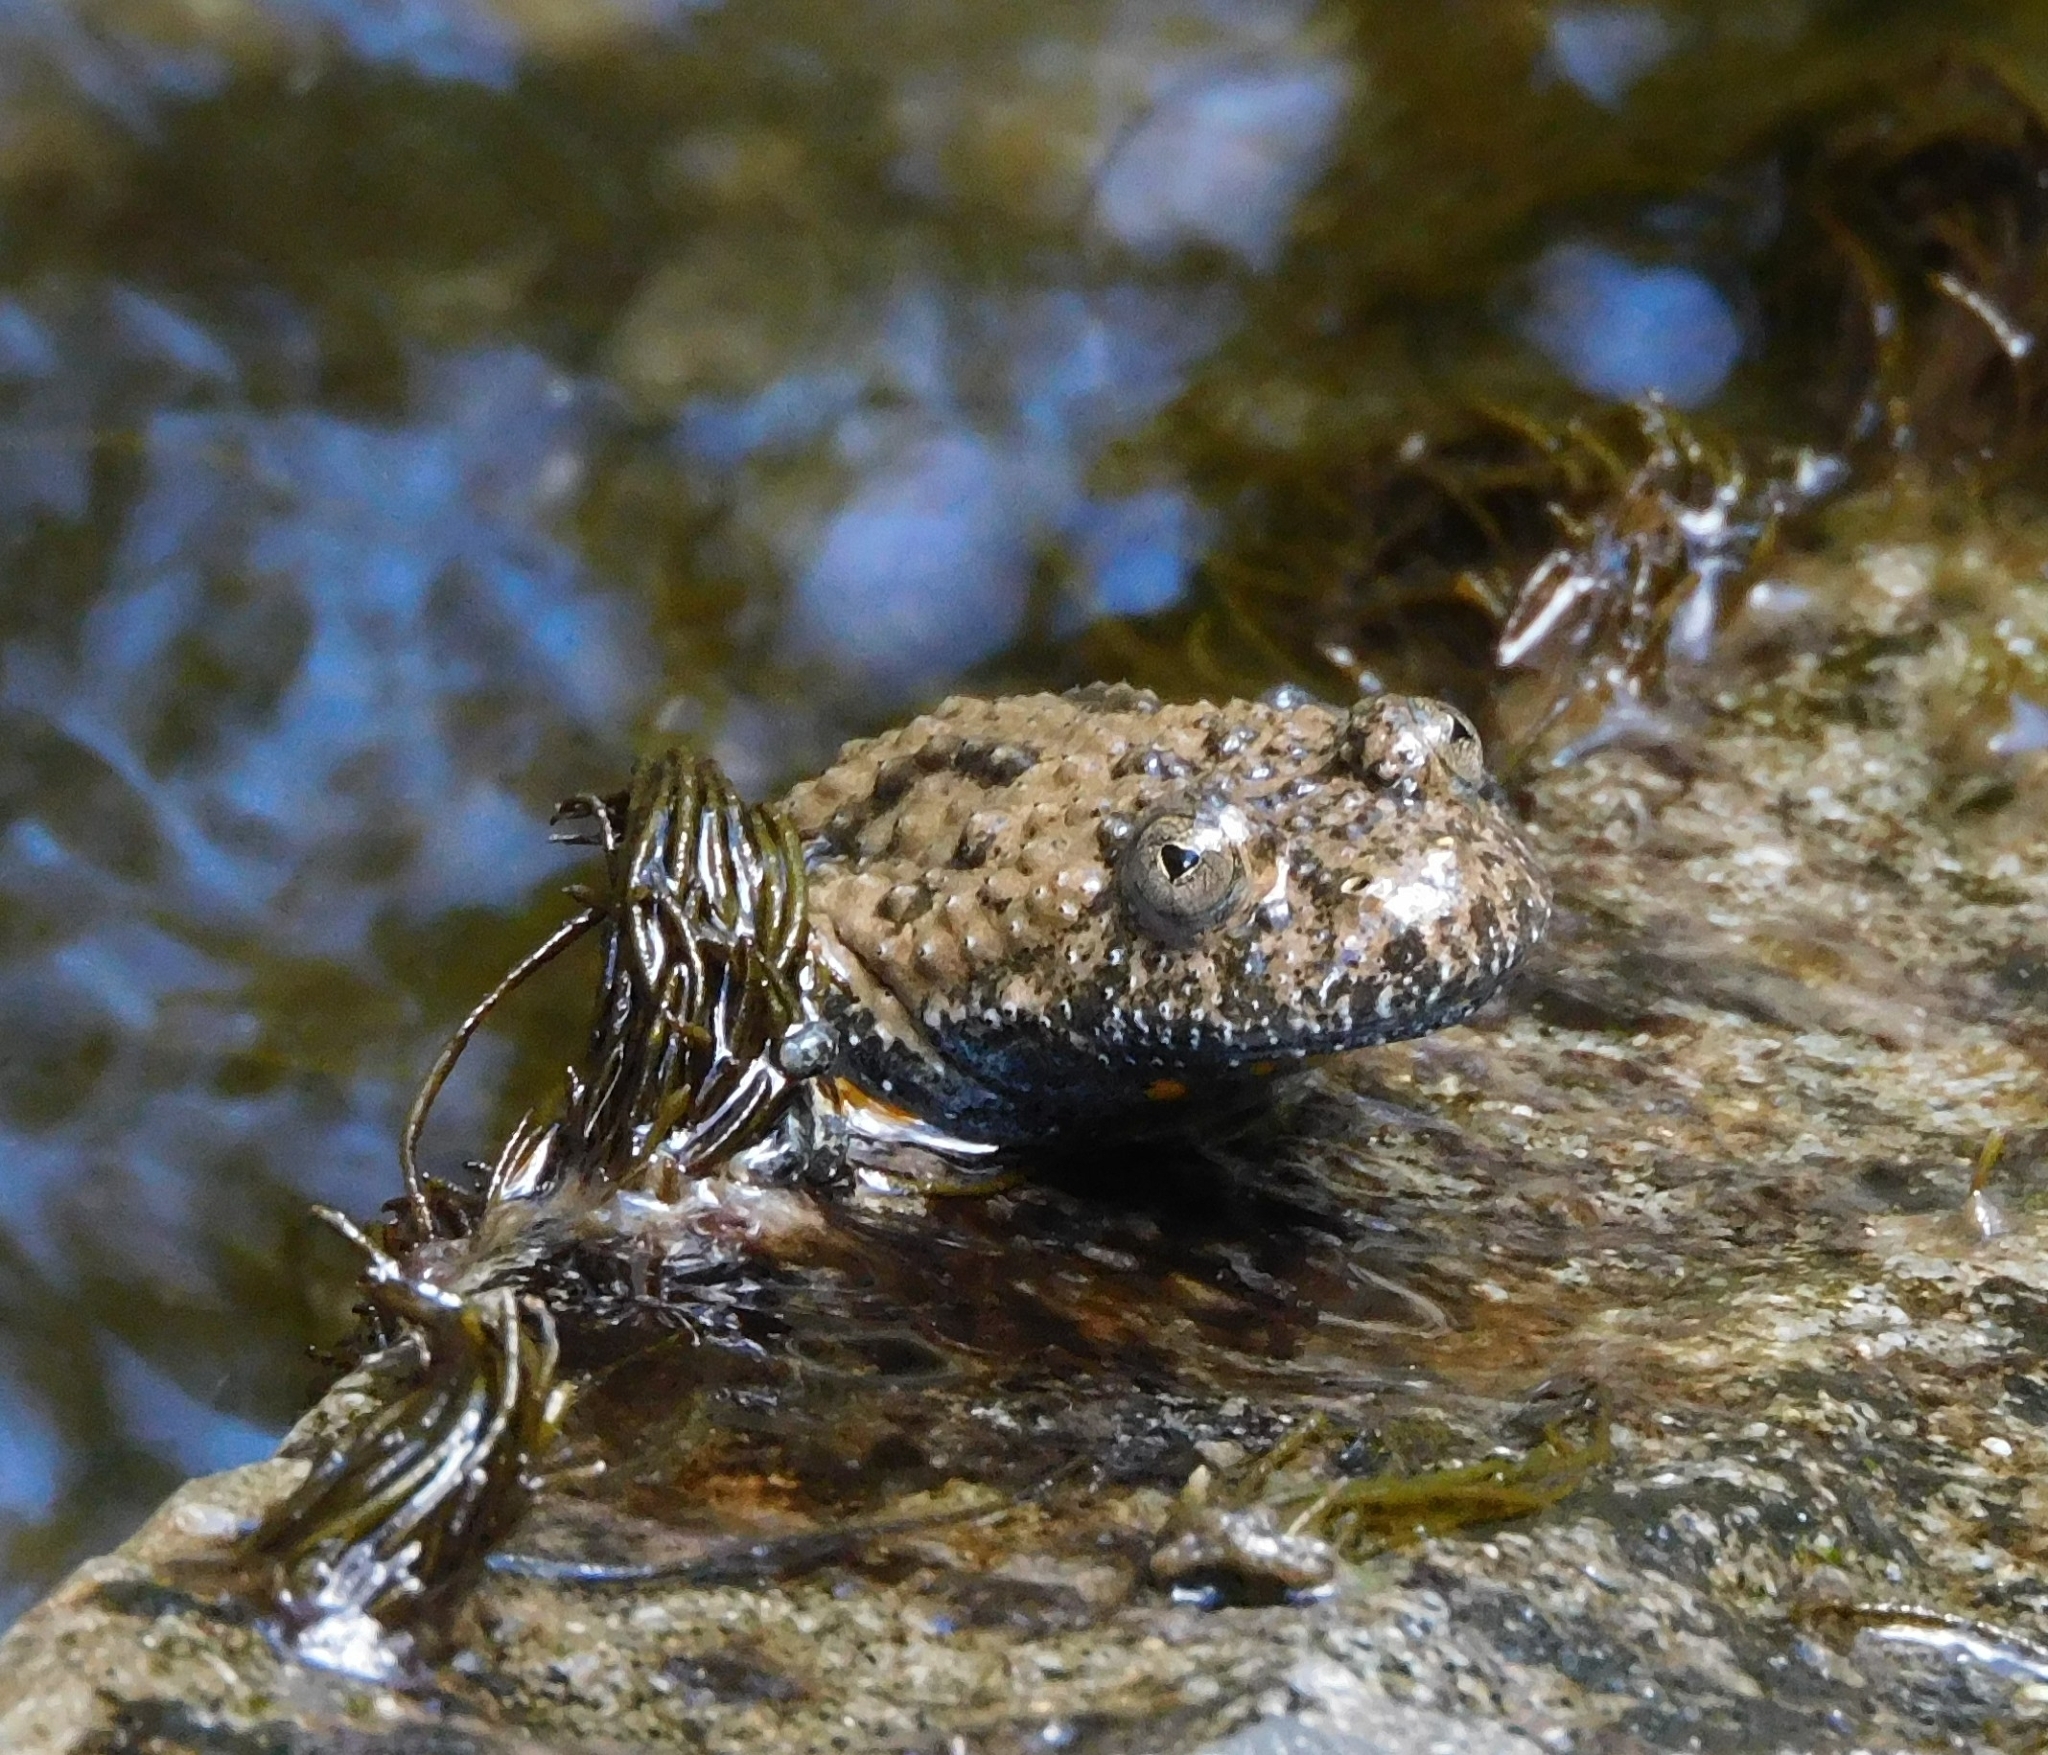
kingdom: Animalia
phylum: Chordata
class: Amphibia
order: Anura
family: Bombinatoridae
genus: Bombina
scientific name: Bombina variegata
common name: Yellow-bellied toad
